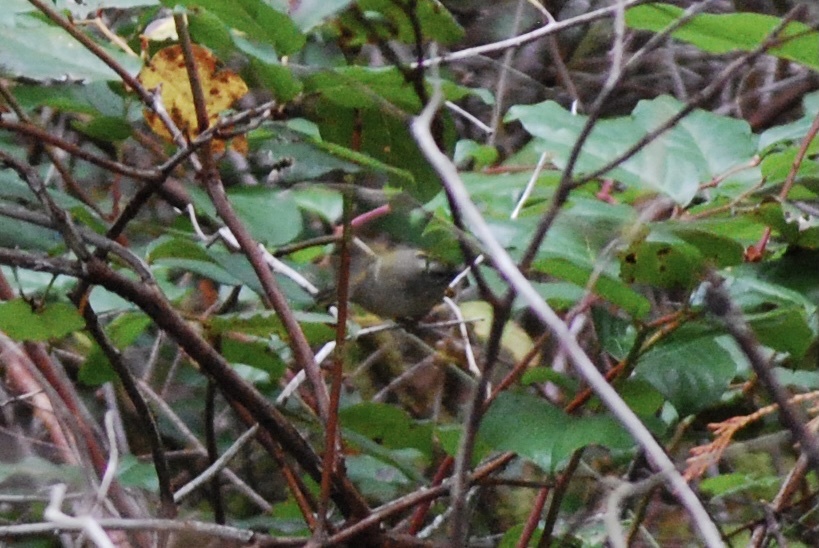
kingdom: Animalia
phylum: Chordata
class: Aves
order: Passeriformes
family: Regulidae
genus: Regulus
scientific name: Regulus satrapa
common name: Golden-crowned kinglet
